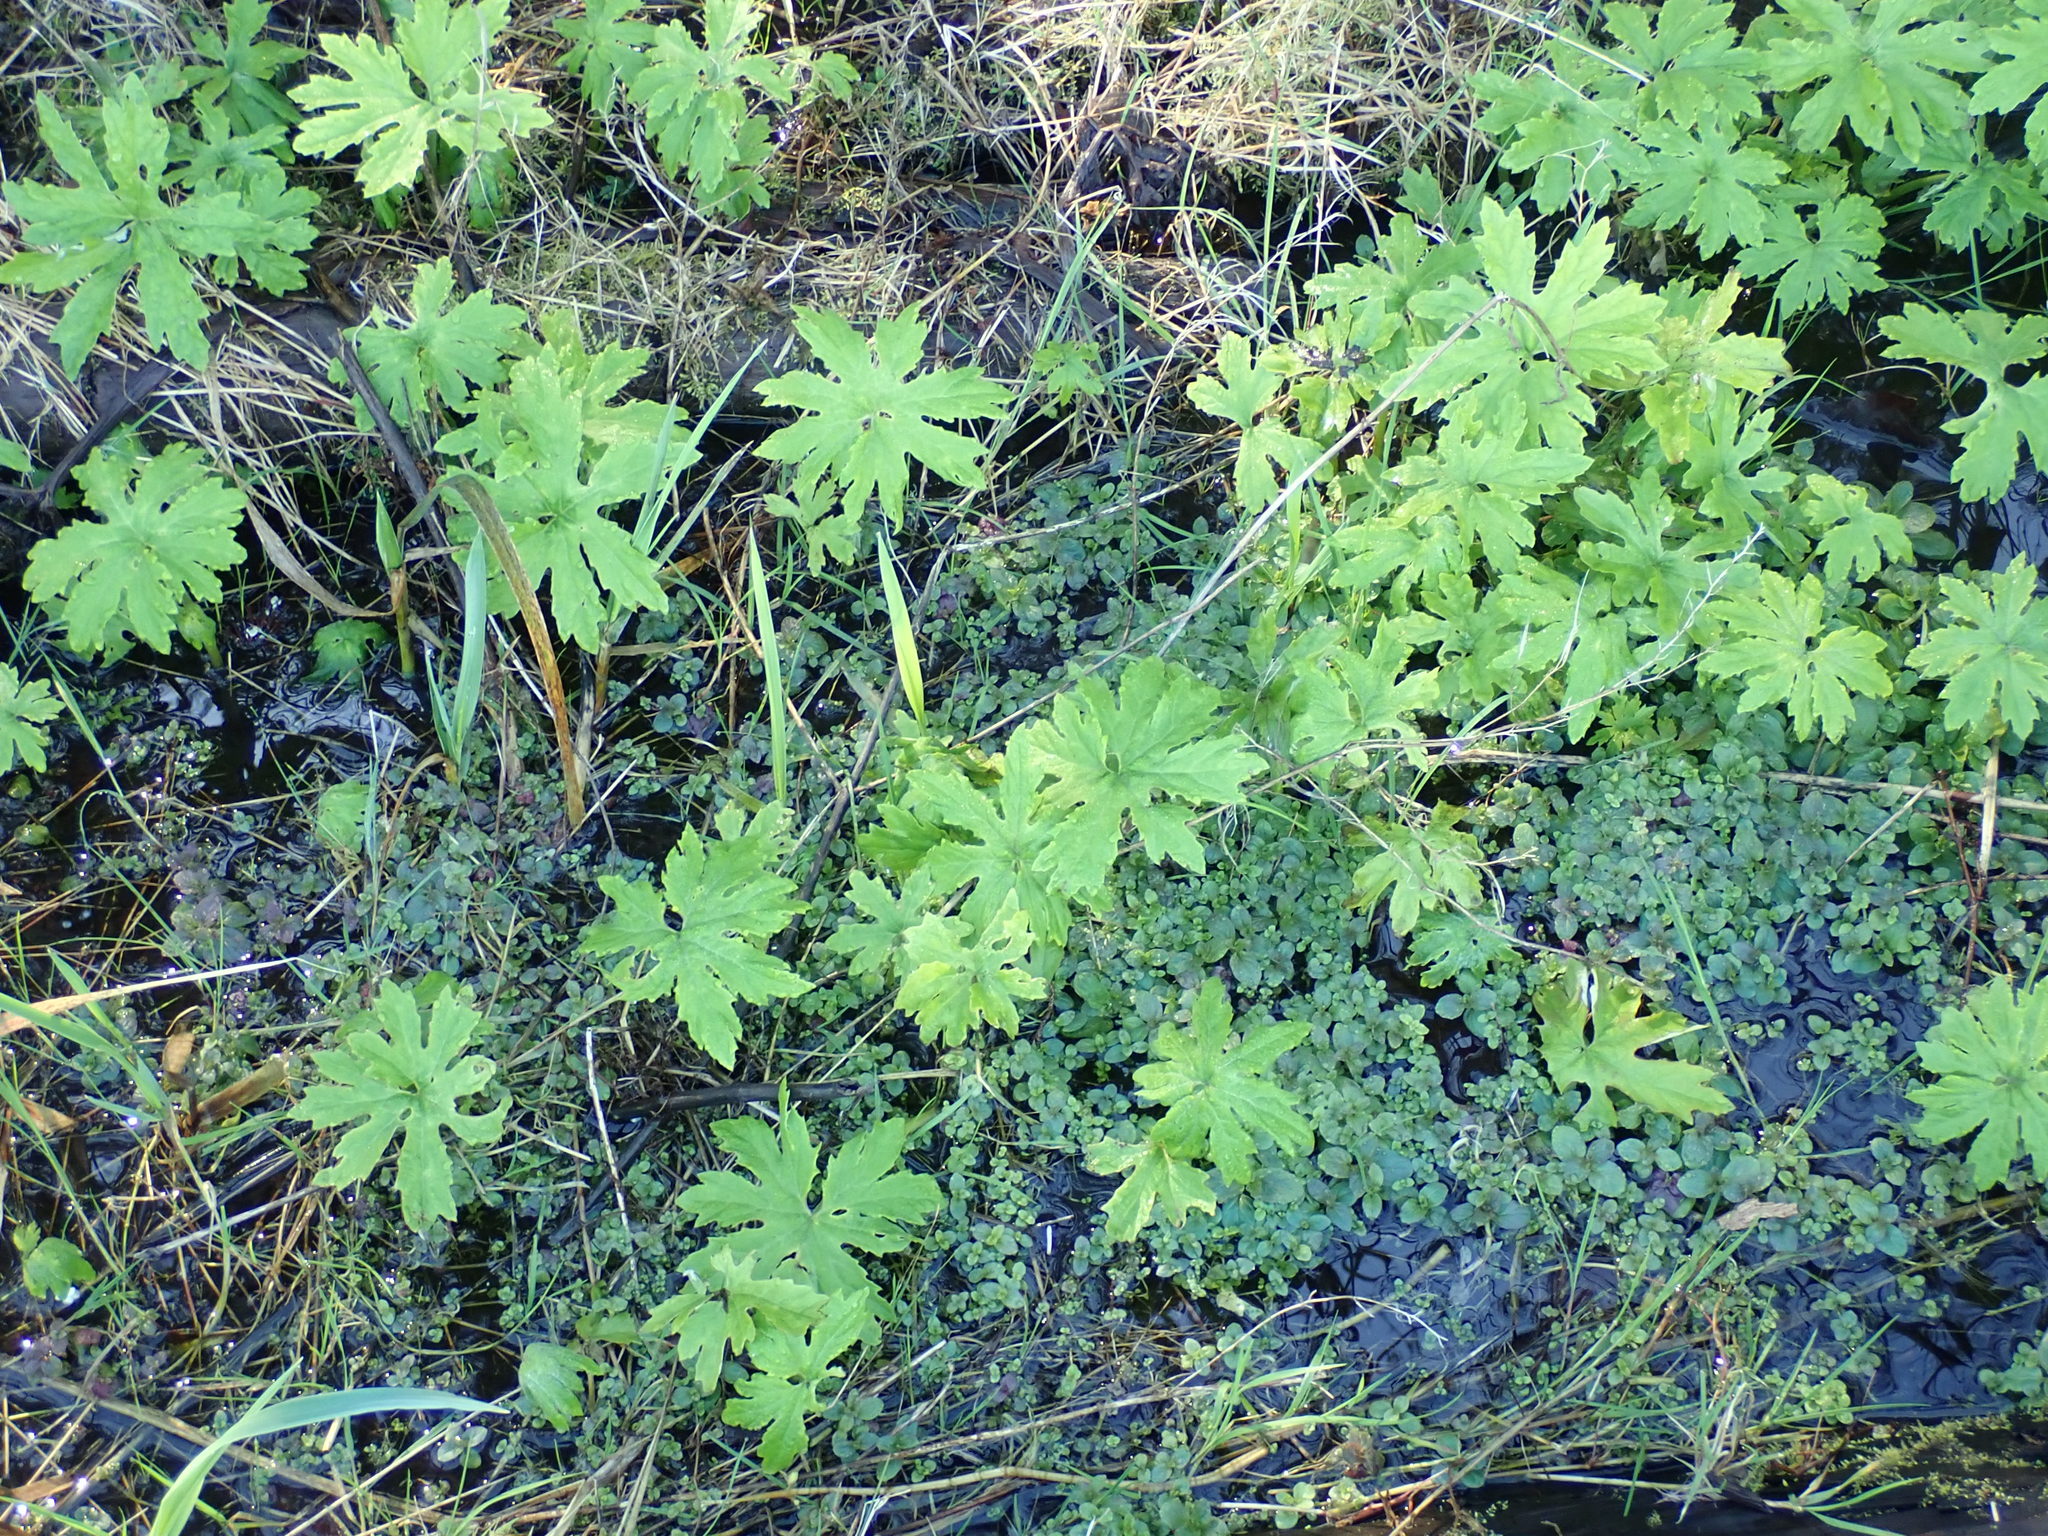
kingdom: Plantae
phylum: Tracheophyta
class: Magnoliopsida
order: Asterales
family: Asteraceae
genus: Petasites
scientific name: Petasites frigidus
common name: Arctic butterbur
